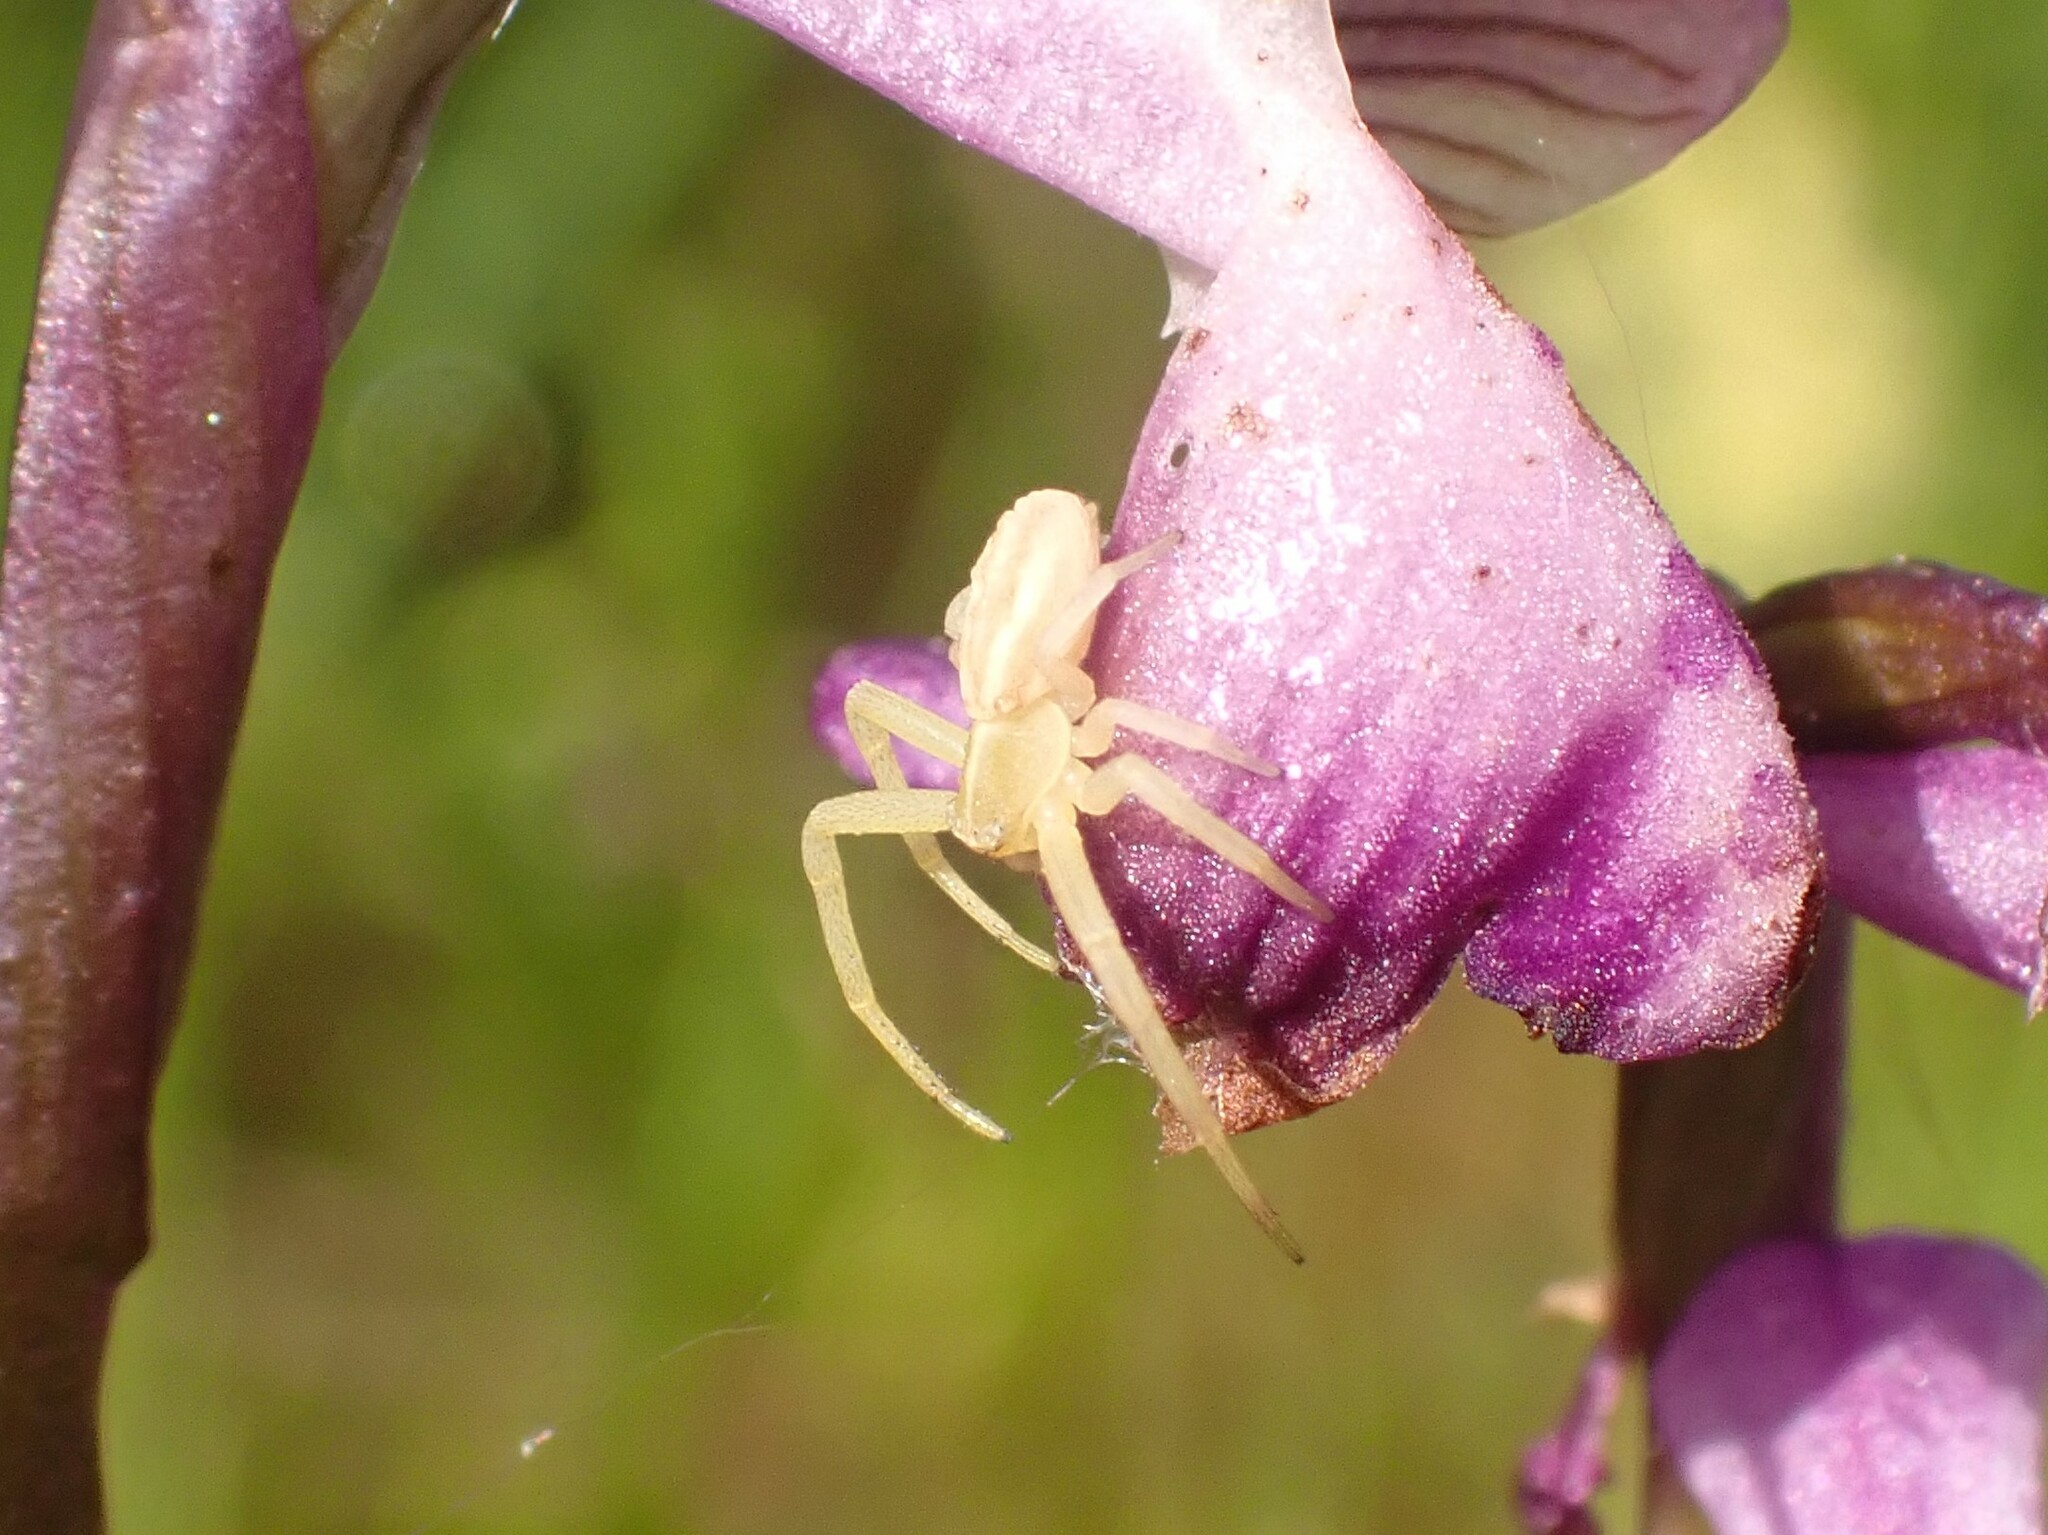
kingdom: Animalia
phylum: Arthropoda
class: Arachnida
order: Araneae
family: Thomisidae
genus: Runcinia
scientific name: Runcinia grammica
